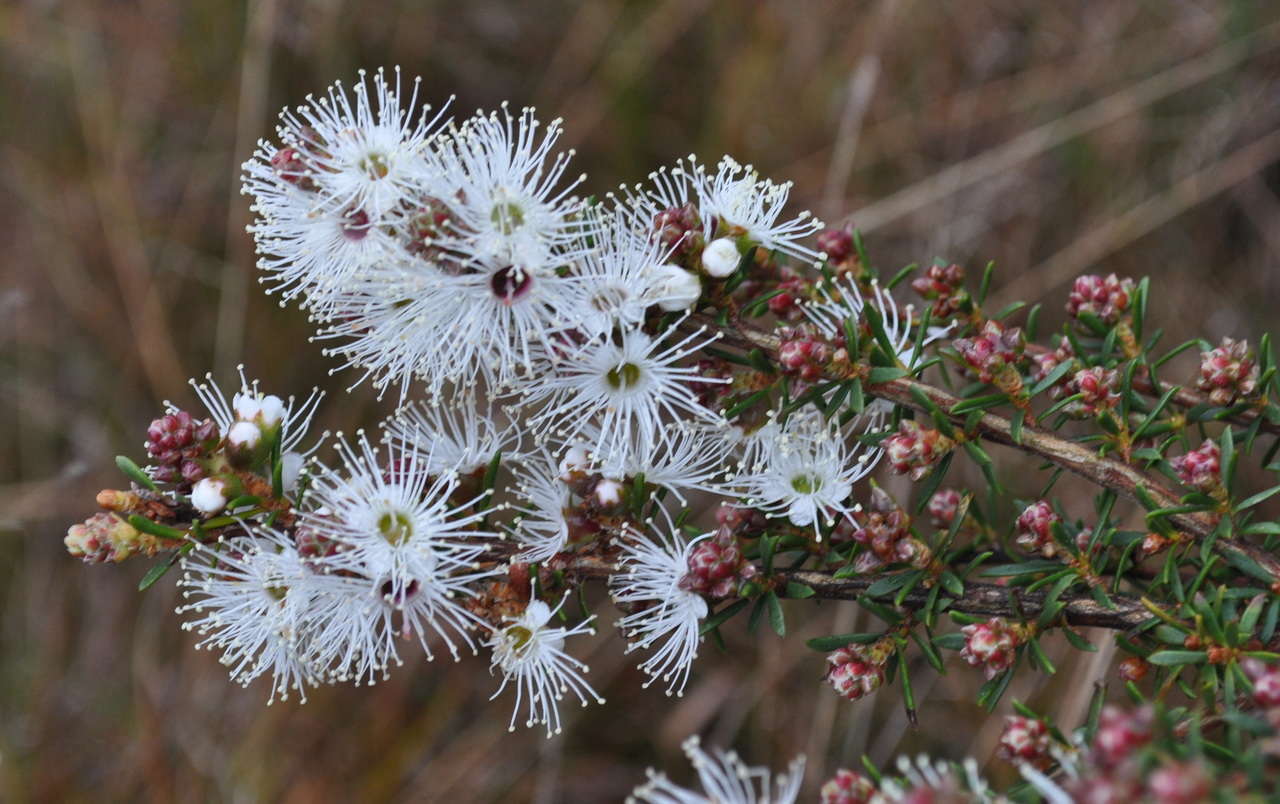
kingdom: Plantae
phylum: Tracheophyta
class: Magnoliopsida
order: Myrtales
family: Myrtaceae
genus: Kunzea
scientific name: Kunzea ambigua
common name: Tickbush
